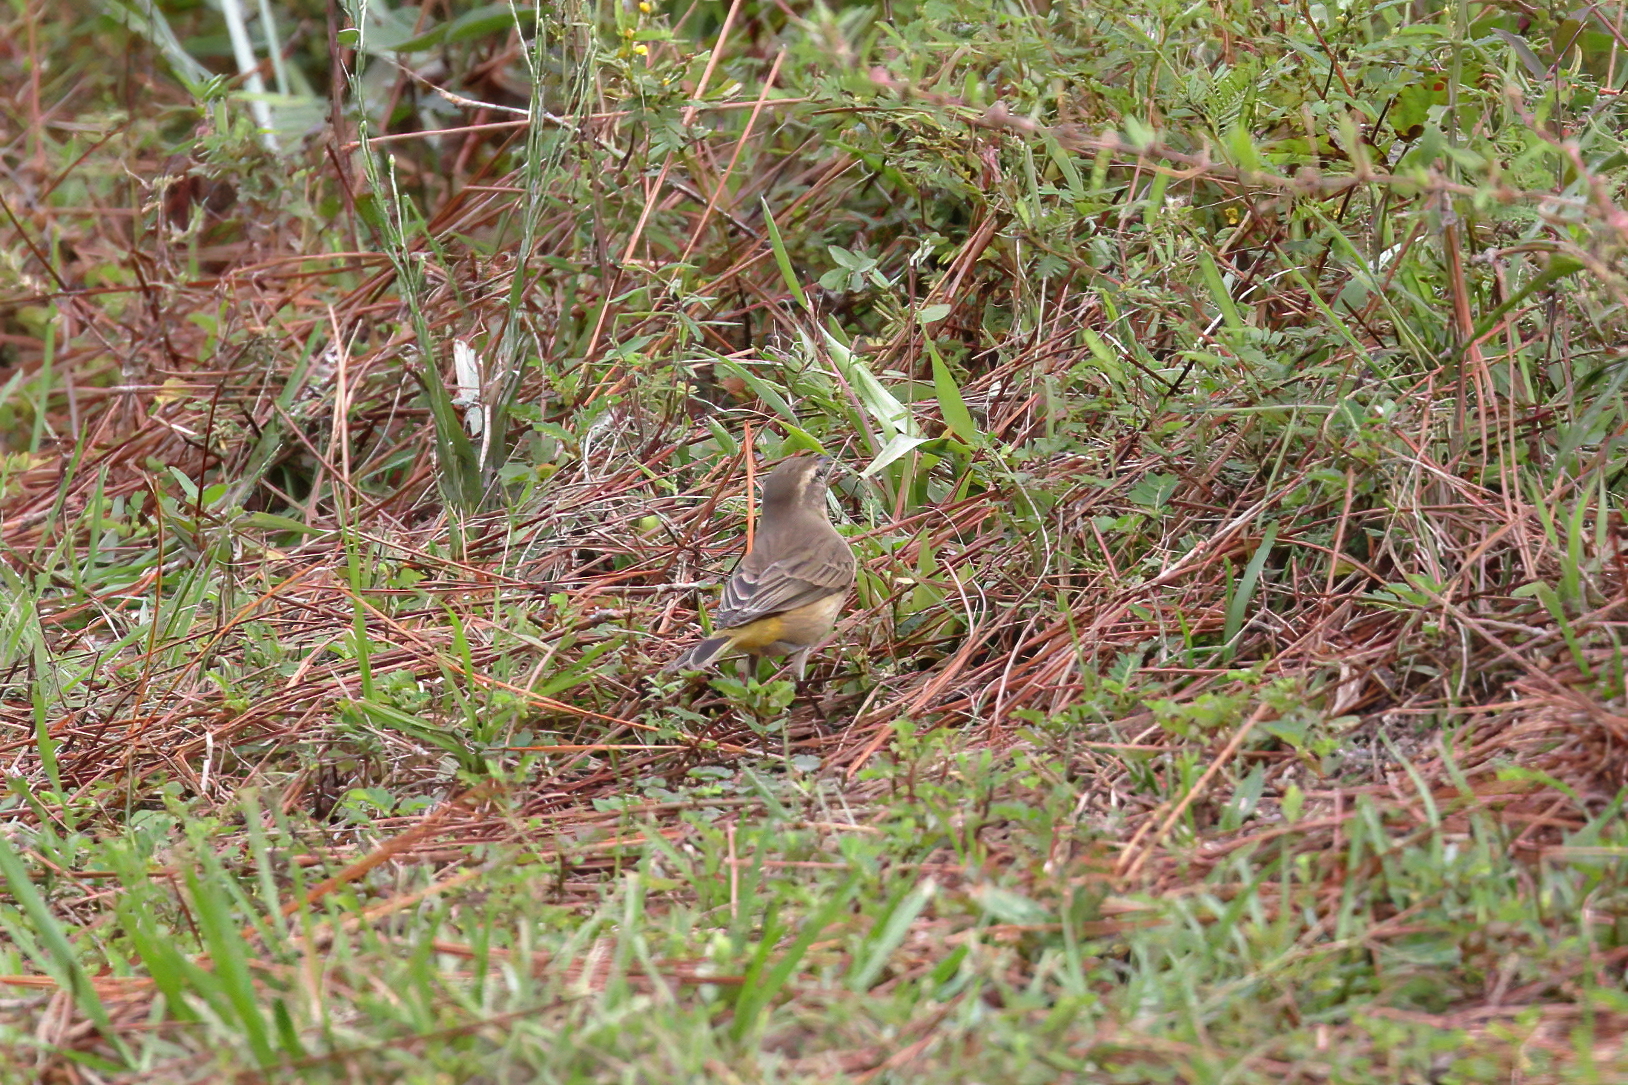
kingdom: Animalia
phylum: Chordata
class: Aves
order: Passeriformes
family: Parulidae
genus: Setophaga
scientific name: Setophaga palmarum
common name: Palm warbler
